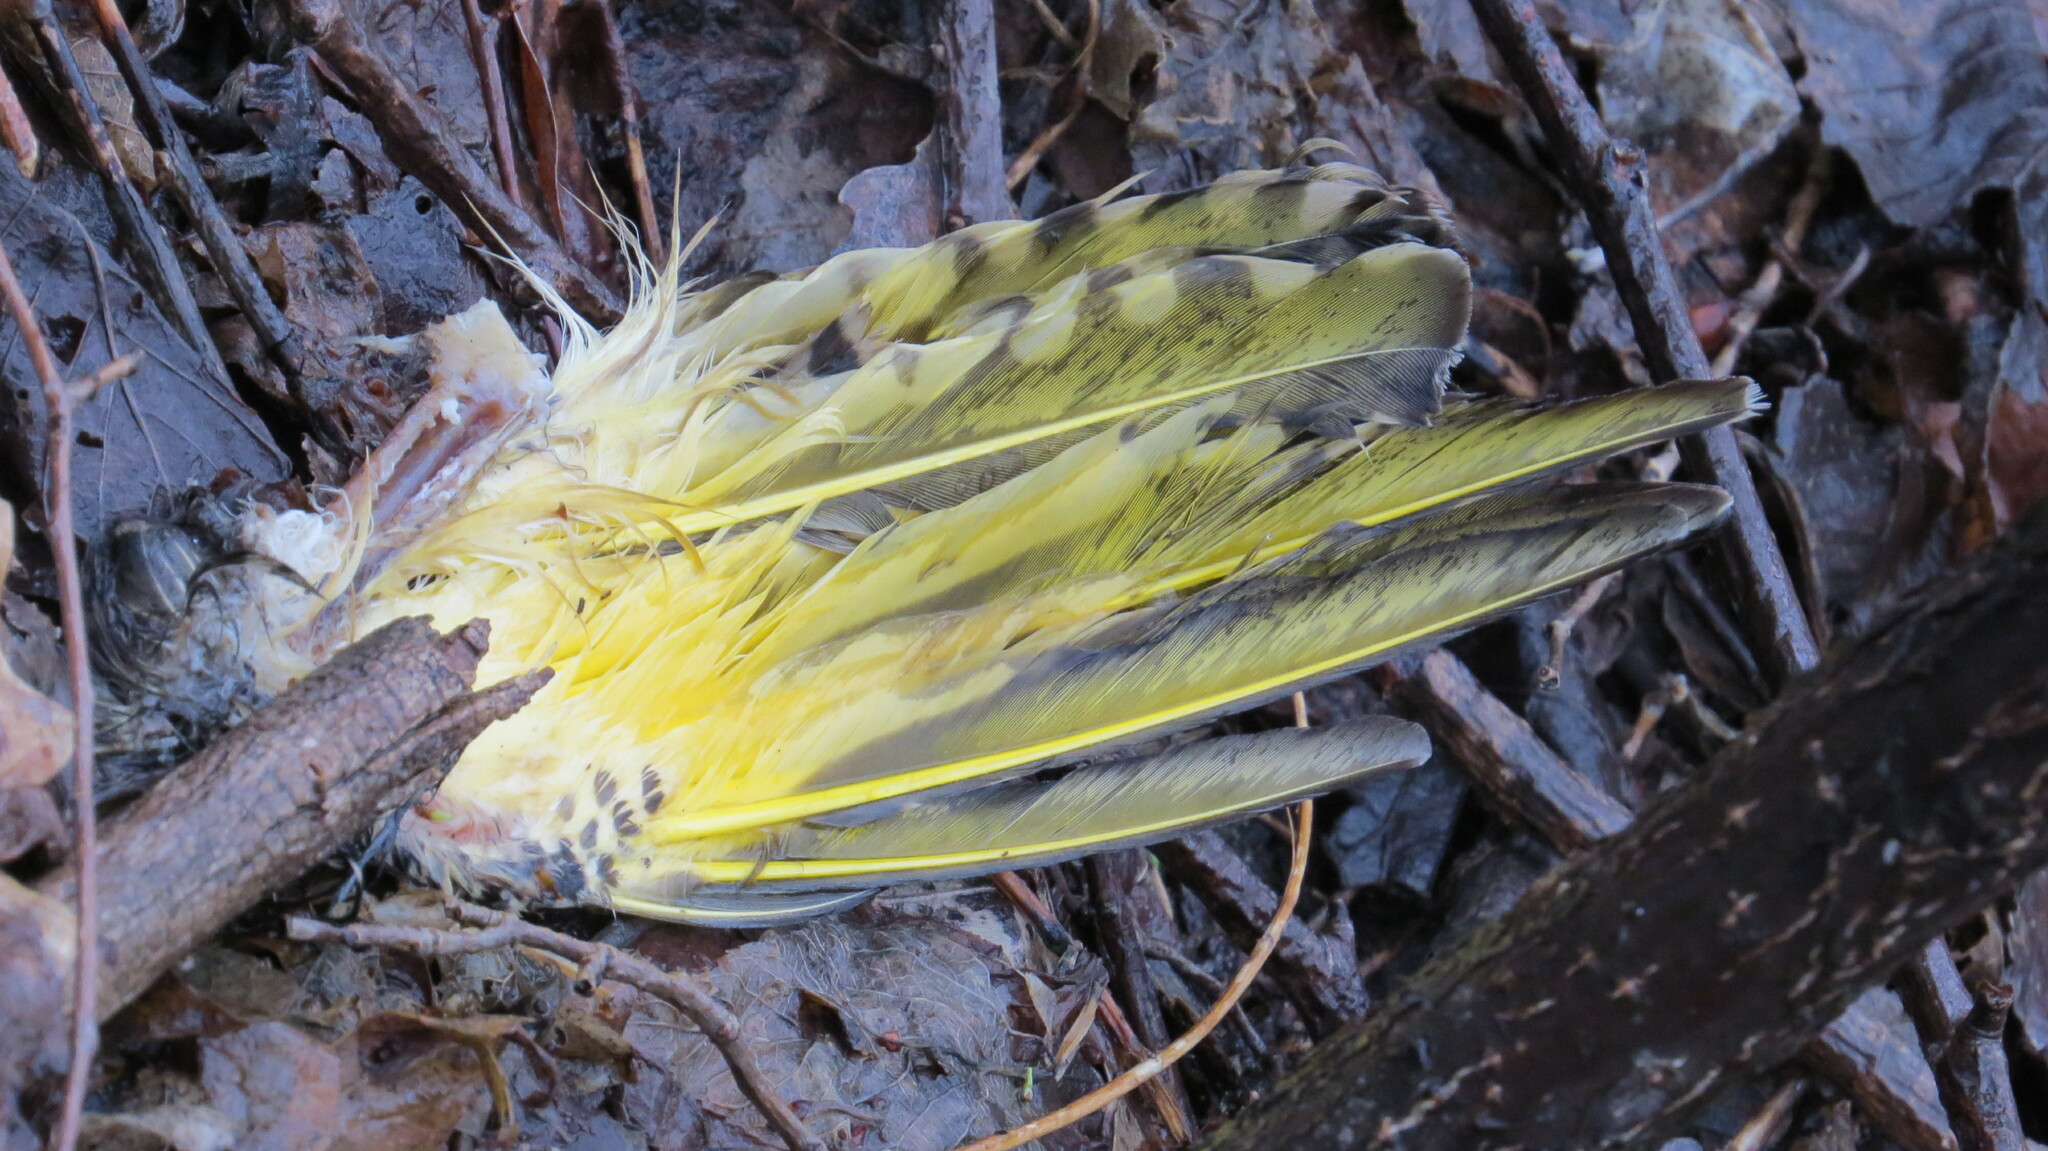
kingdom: Animalia
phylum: Chordata
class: Aves
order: Piciformes
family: Picidae
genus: Colaptes
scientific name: Colaptes auratus
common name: Northern flicker
